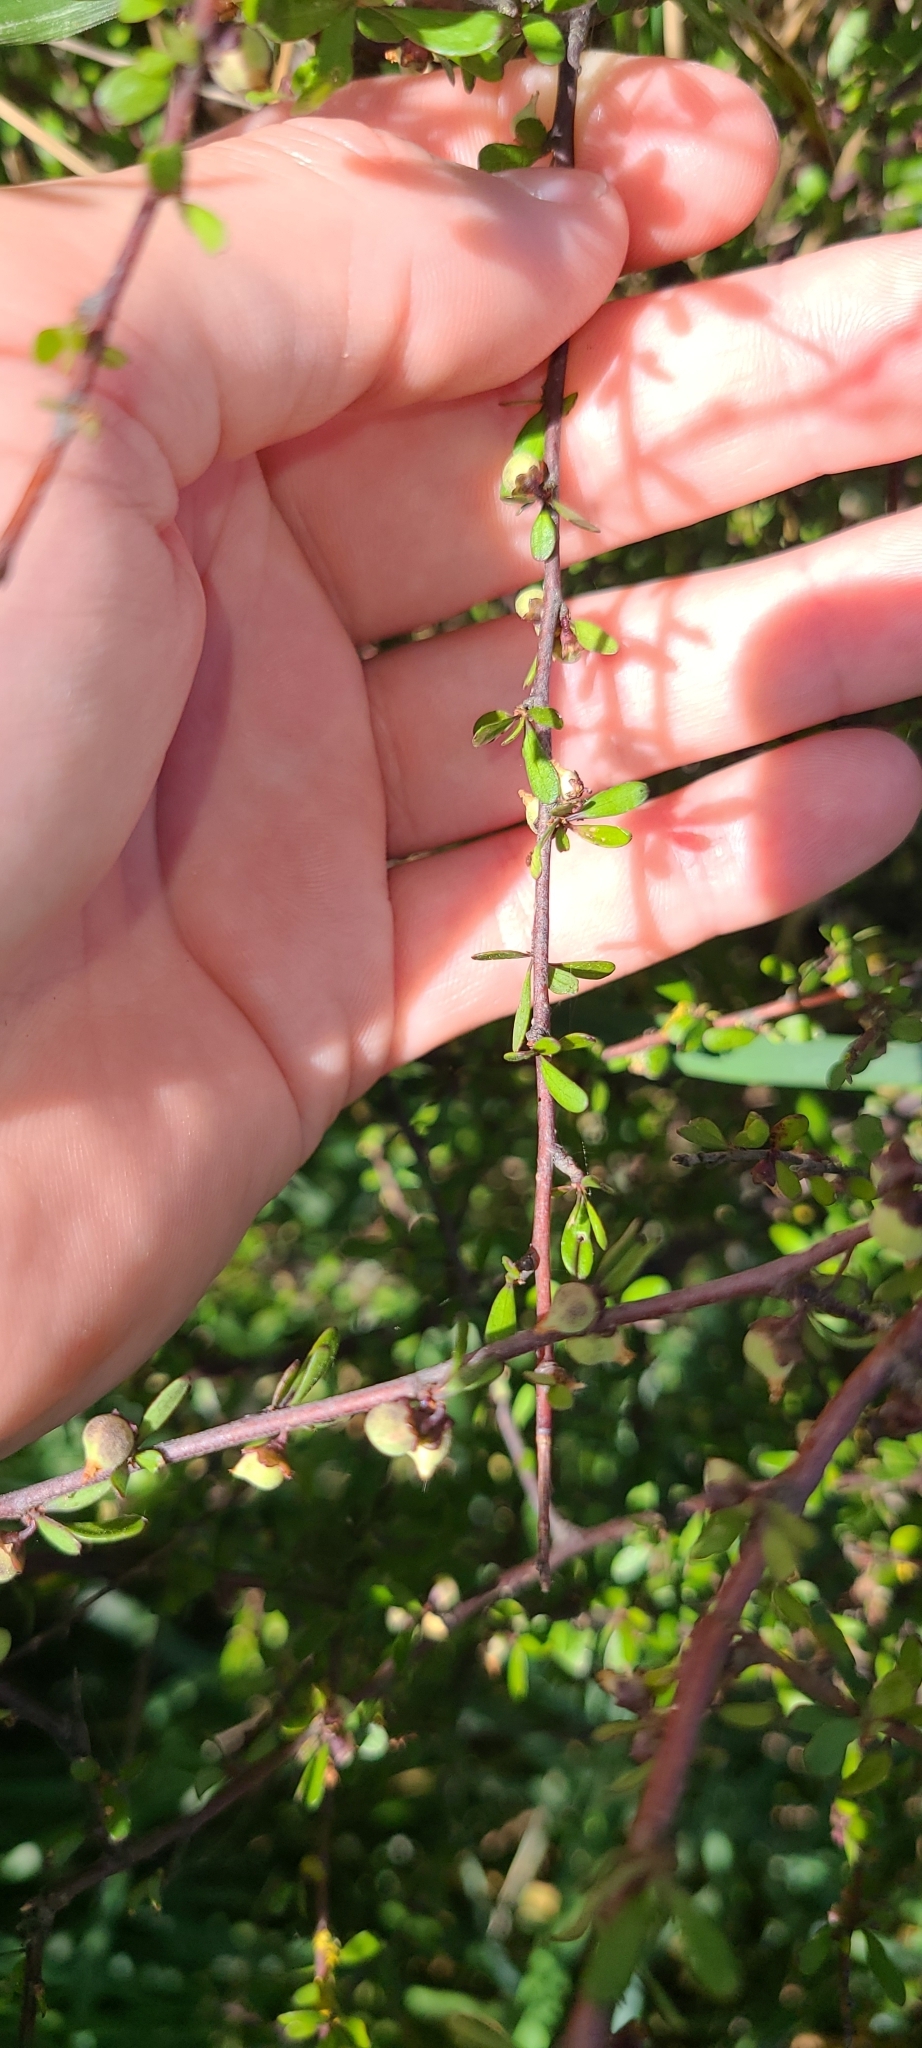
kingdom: Plantae
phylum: Tracheophyta
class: Magnoliopsida
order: Malvales
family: Malvaceae
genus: Plagianthus
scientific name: Plagianthus divaricatus
